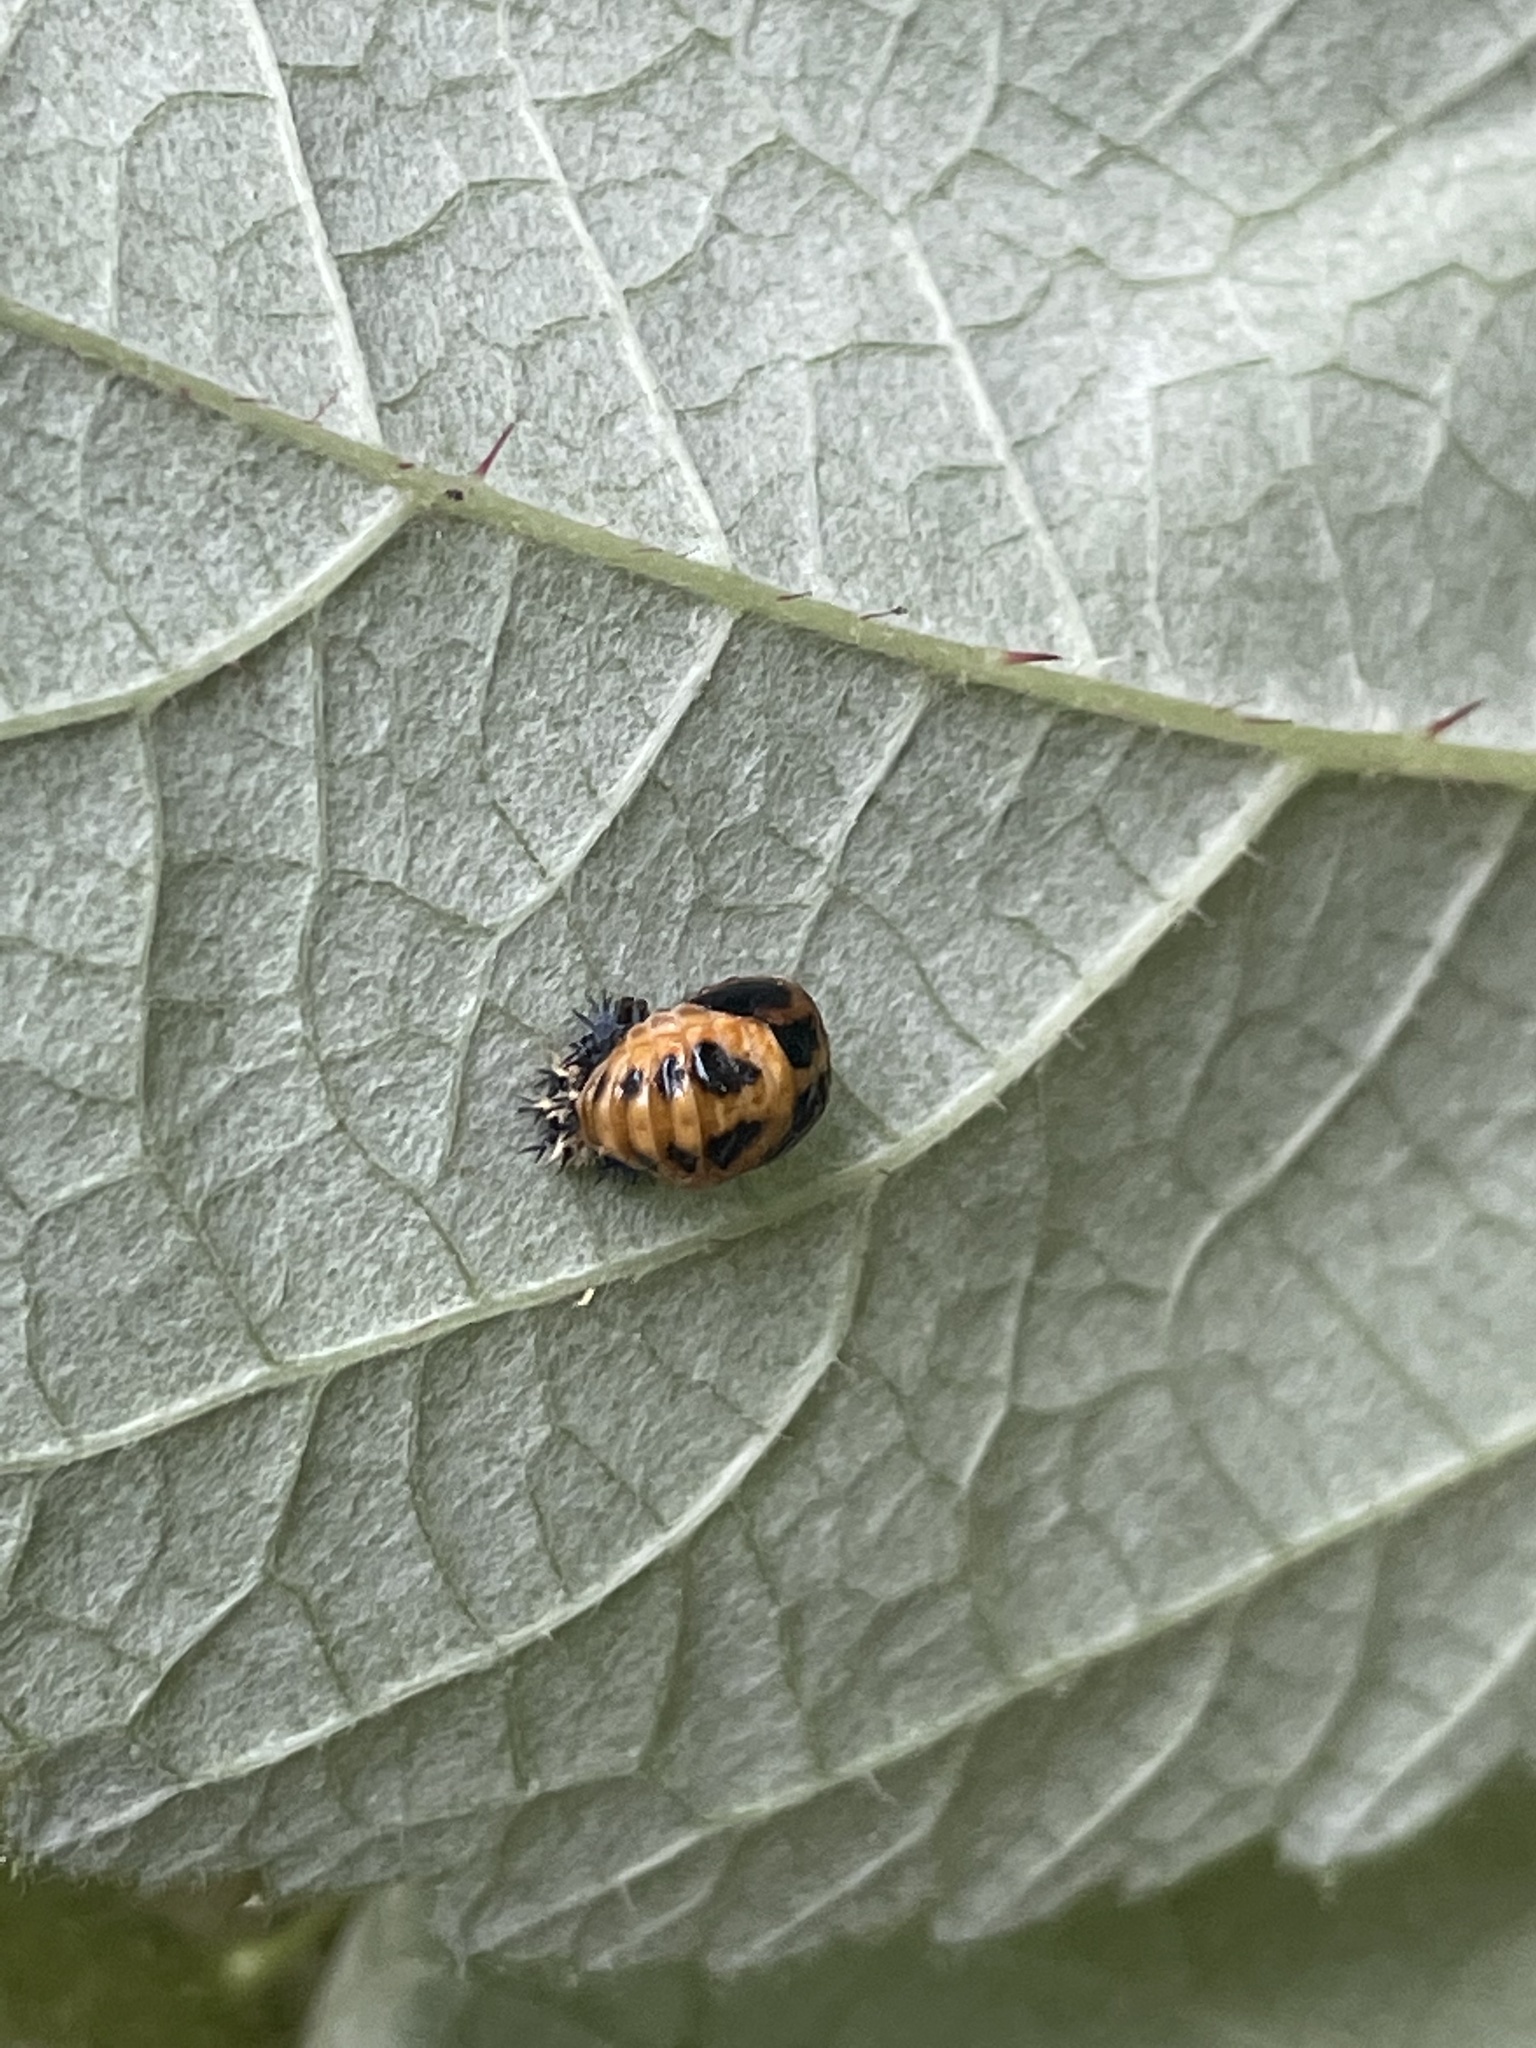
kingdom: Animalia
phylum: Arthropoda
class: Insecta
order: Coleoptera
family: Coccinellidae
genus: Harmonia
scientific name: Harmonia axyridis
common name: Harlequin ladybird
